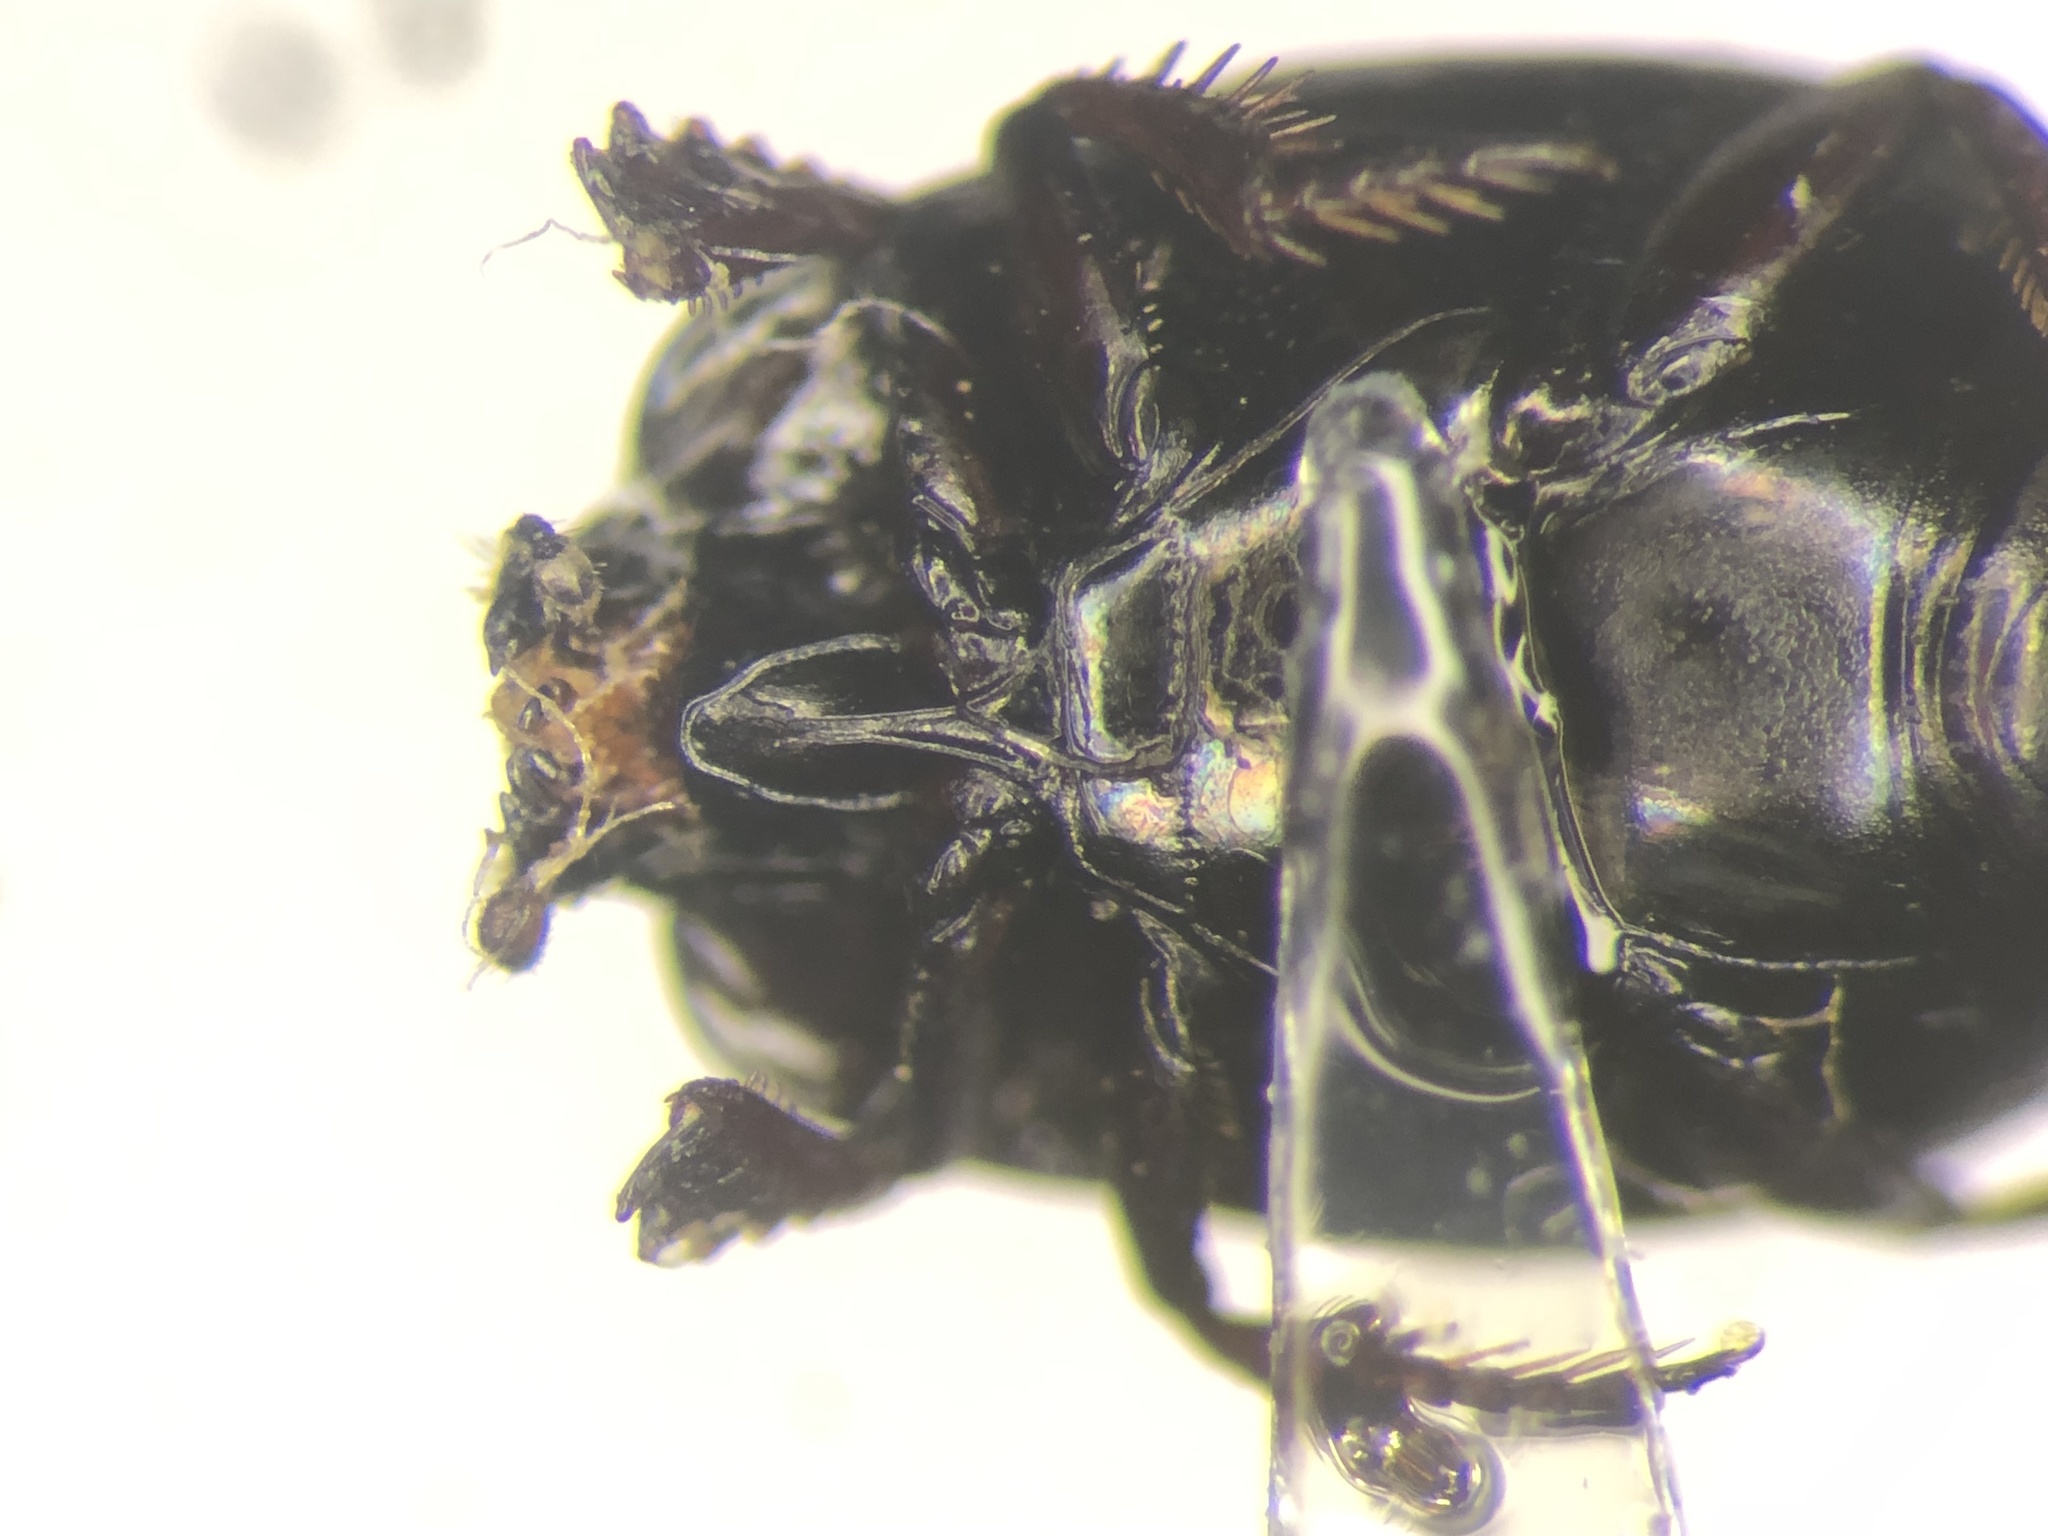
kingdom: Animalia
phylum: Arthropoda
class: Insecta
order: Coleoptera
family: Histeridae
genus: Hypocaccus
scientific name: Hypocaccus bigener
